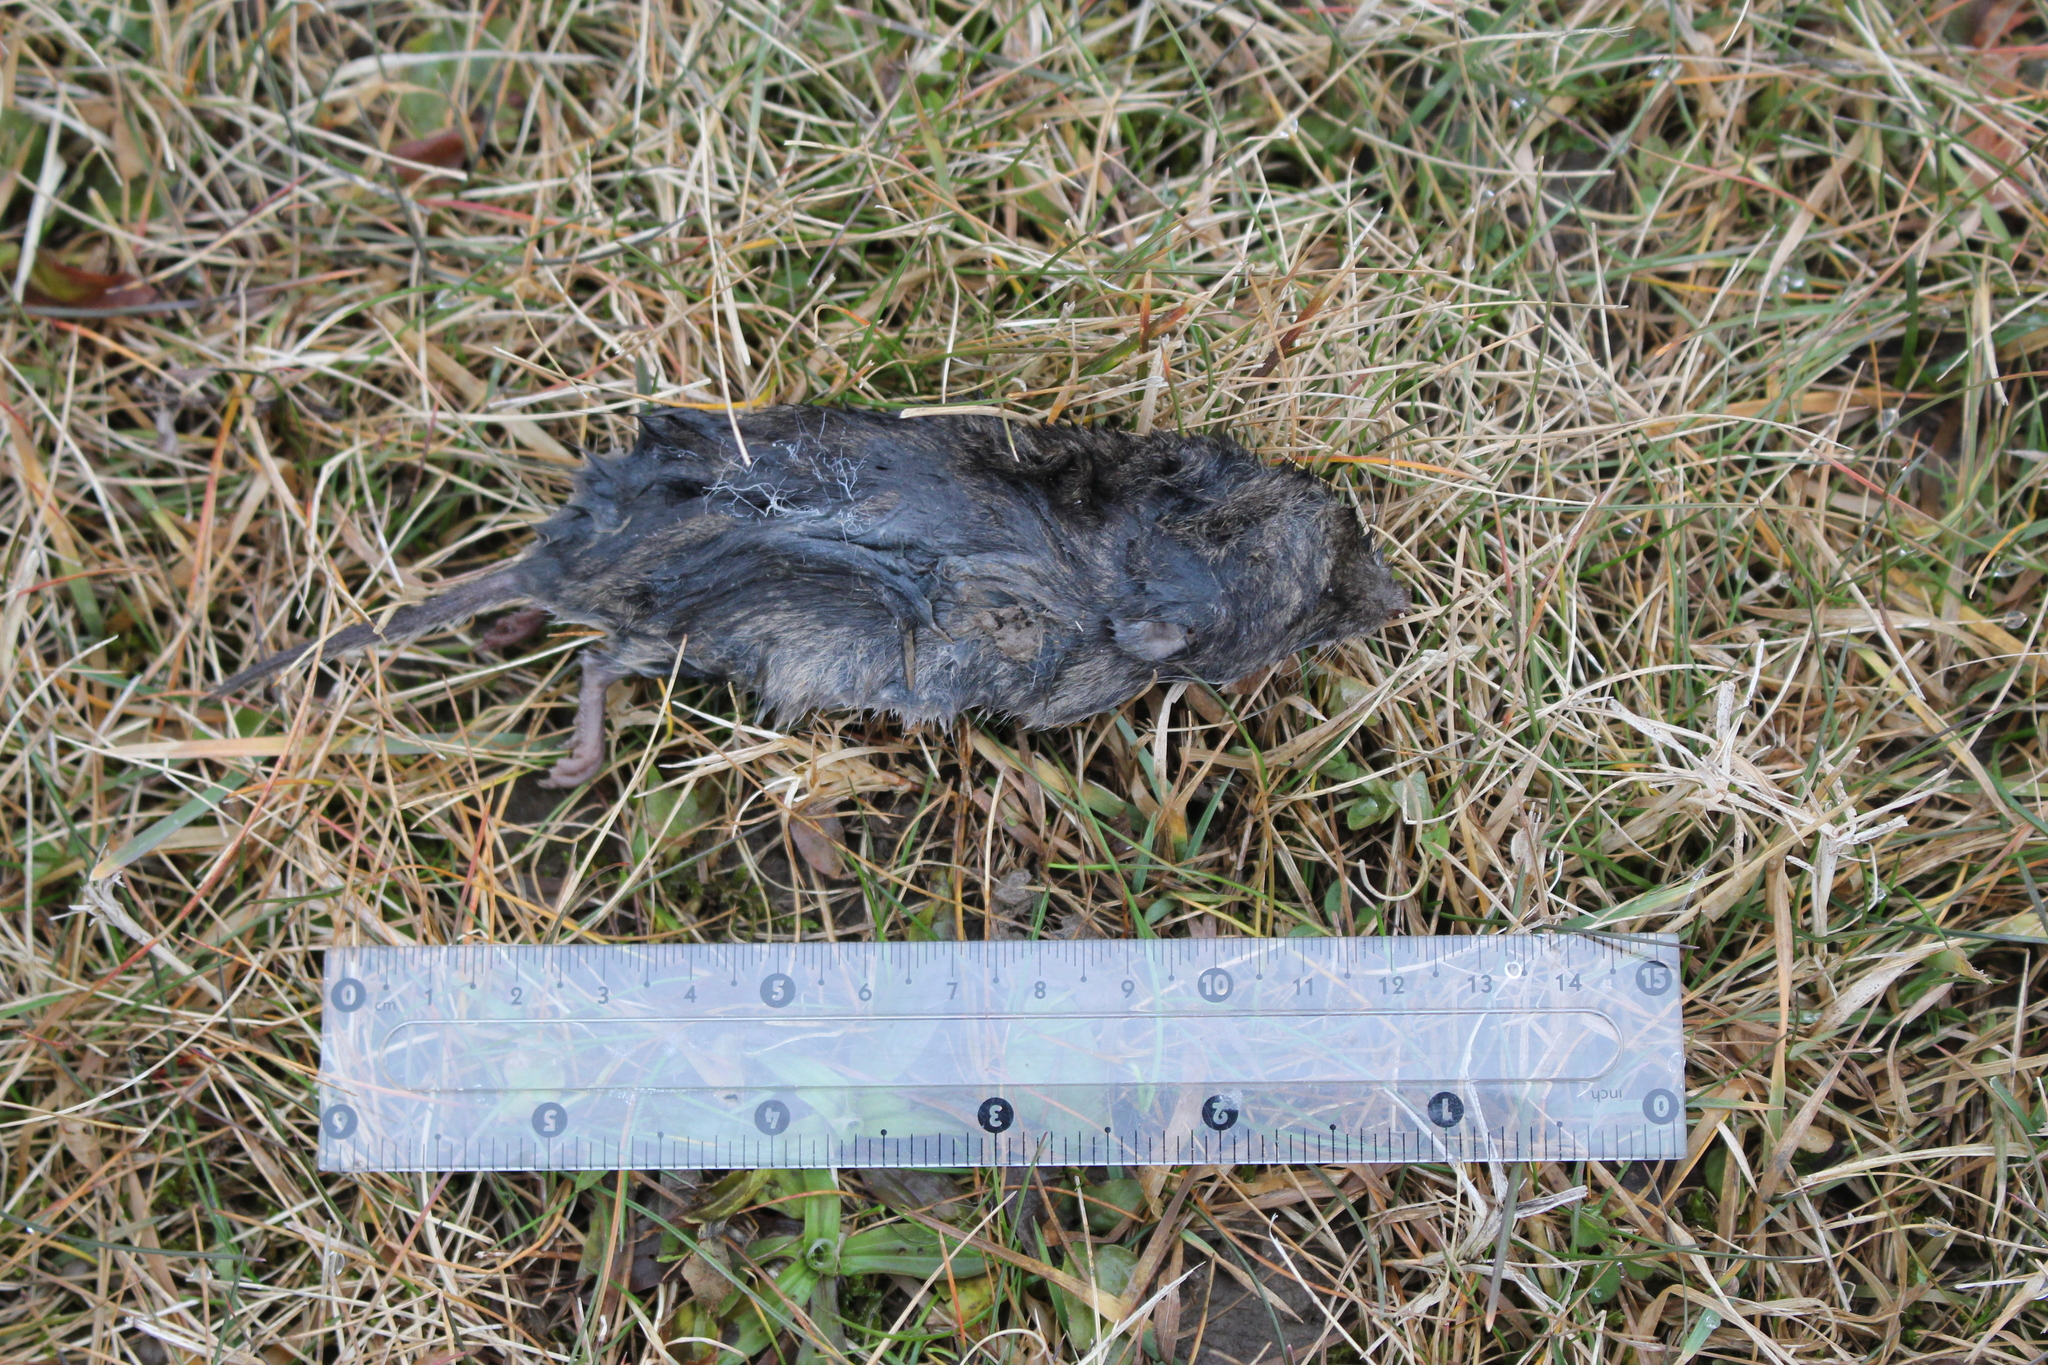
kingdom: Animalia
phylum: Chordata
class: Mammalia
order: Rodentia
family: Cricetidae
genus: Microtus
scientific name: Microtus pennsylvanicus
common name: Meadow vole
